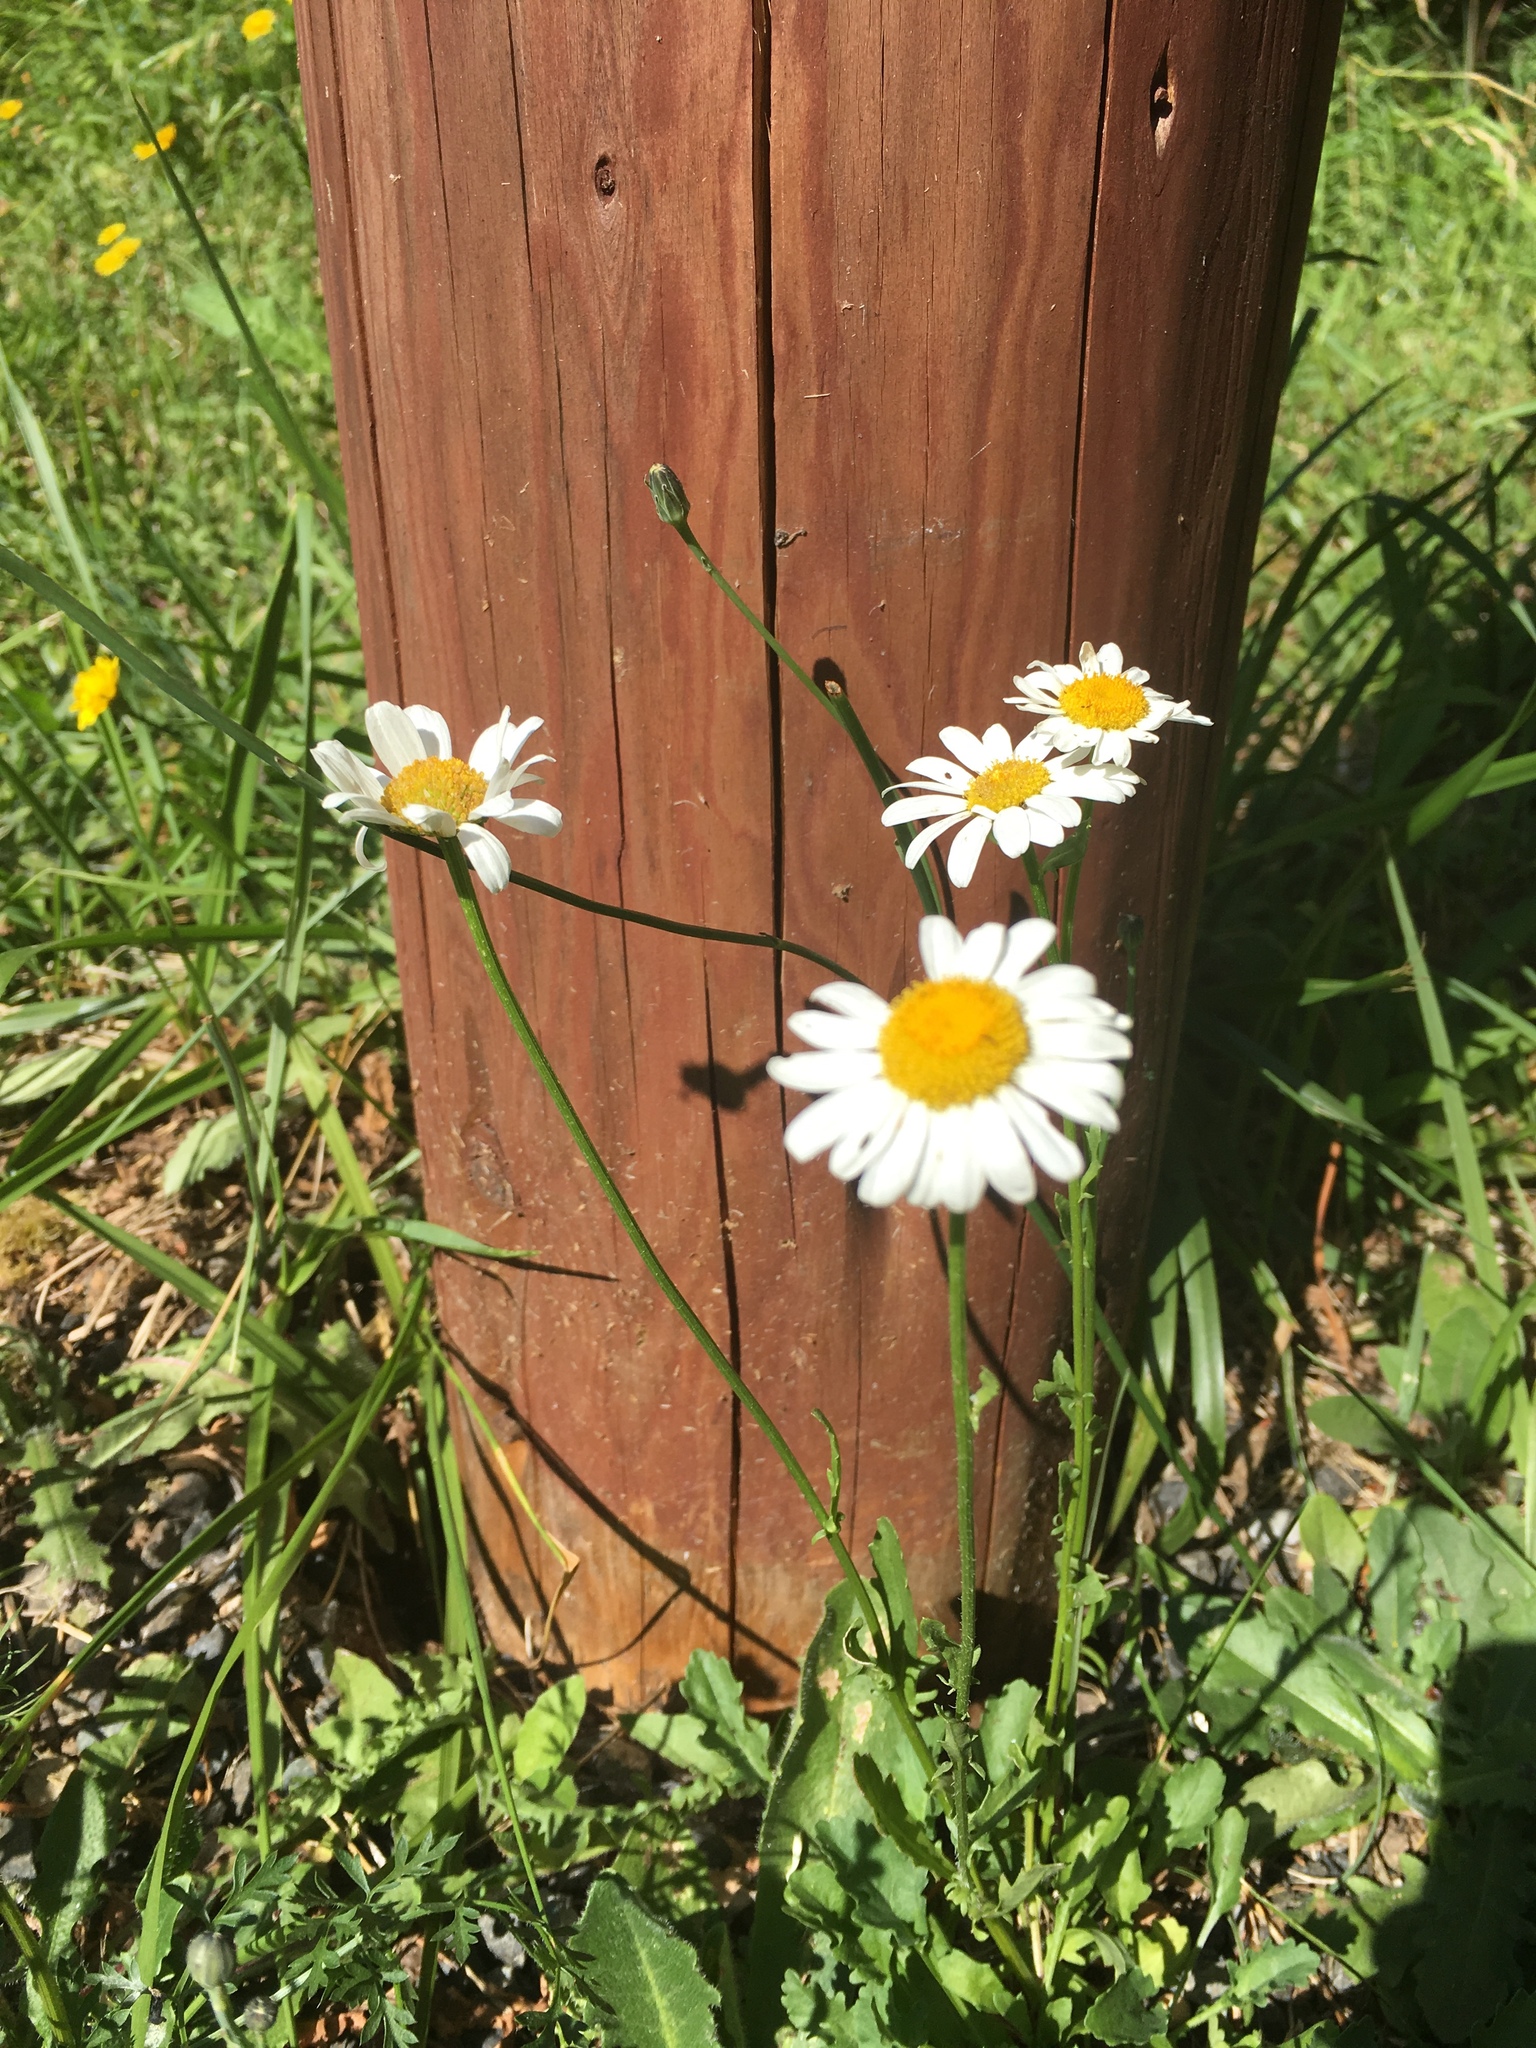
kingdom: Plantae
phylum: Tracheophyta
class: Magnoliopsida
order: Asterales
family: Asteraceae
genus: Leucanthemum
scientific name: Leucanthemum vulgare
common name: Oxeye daisy
